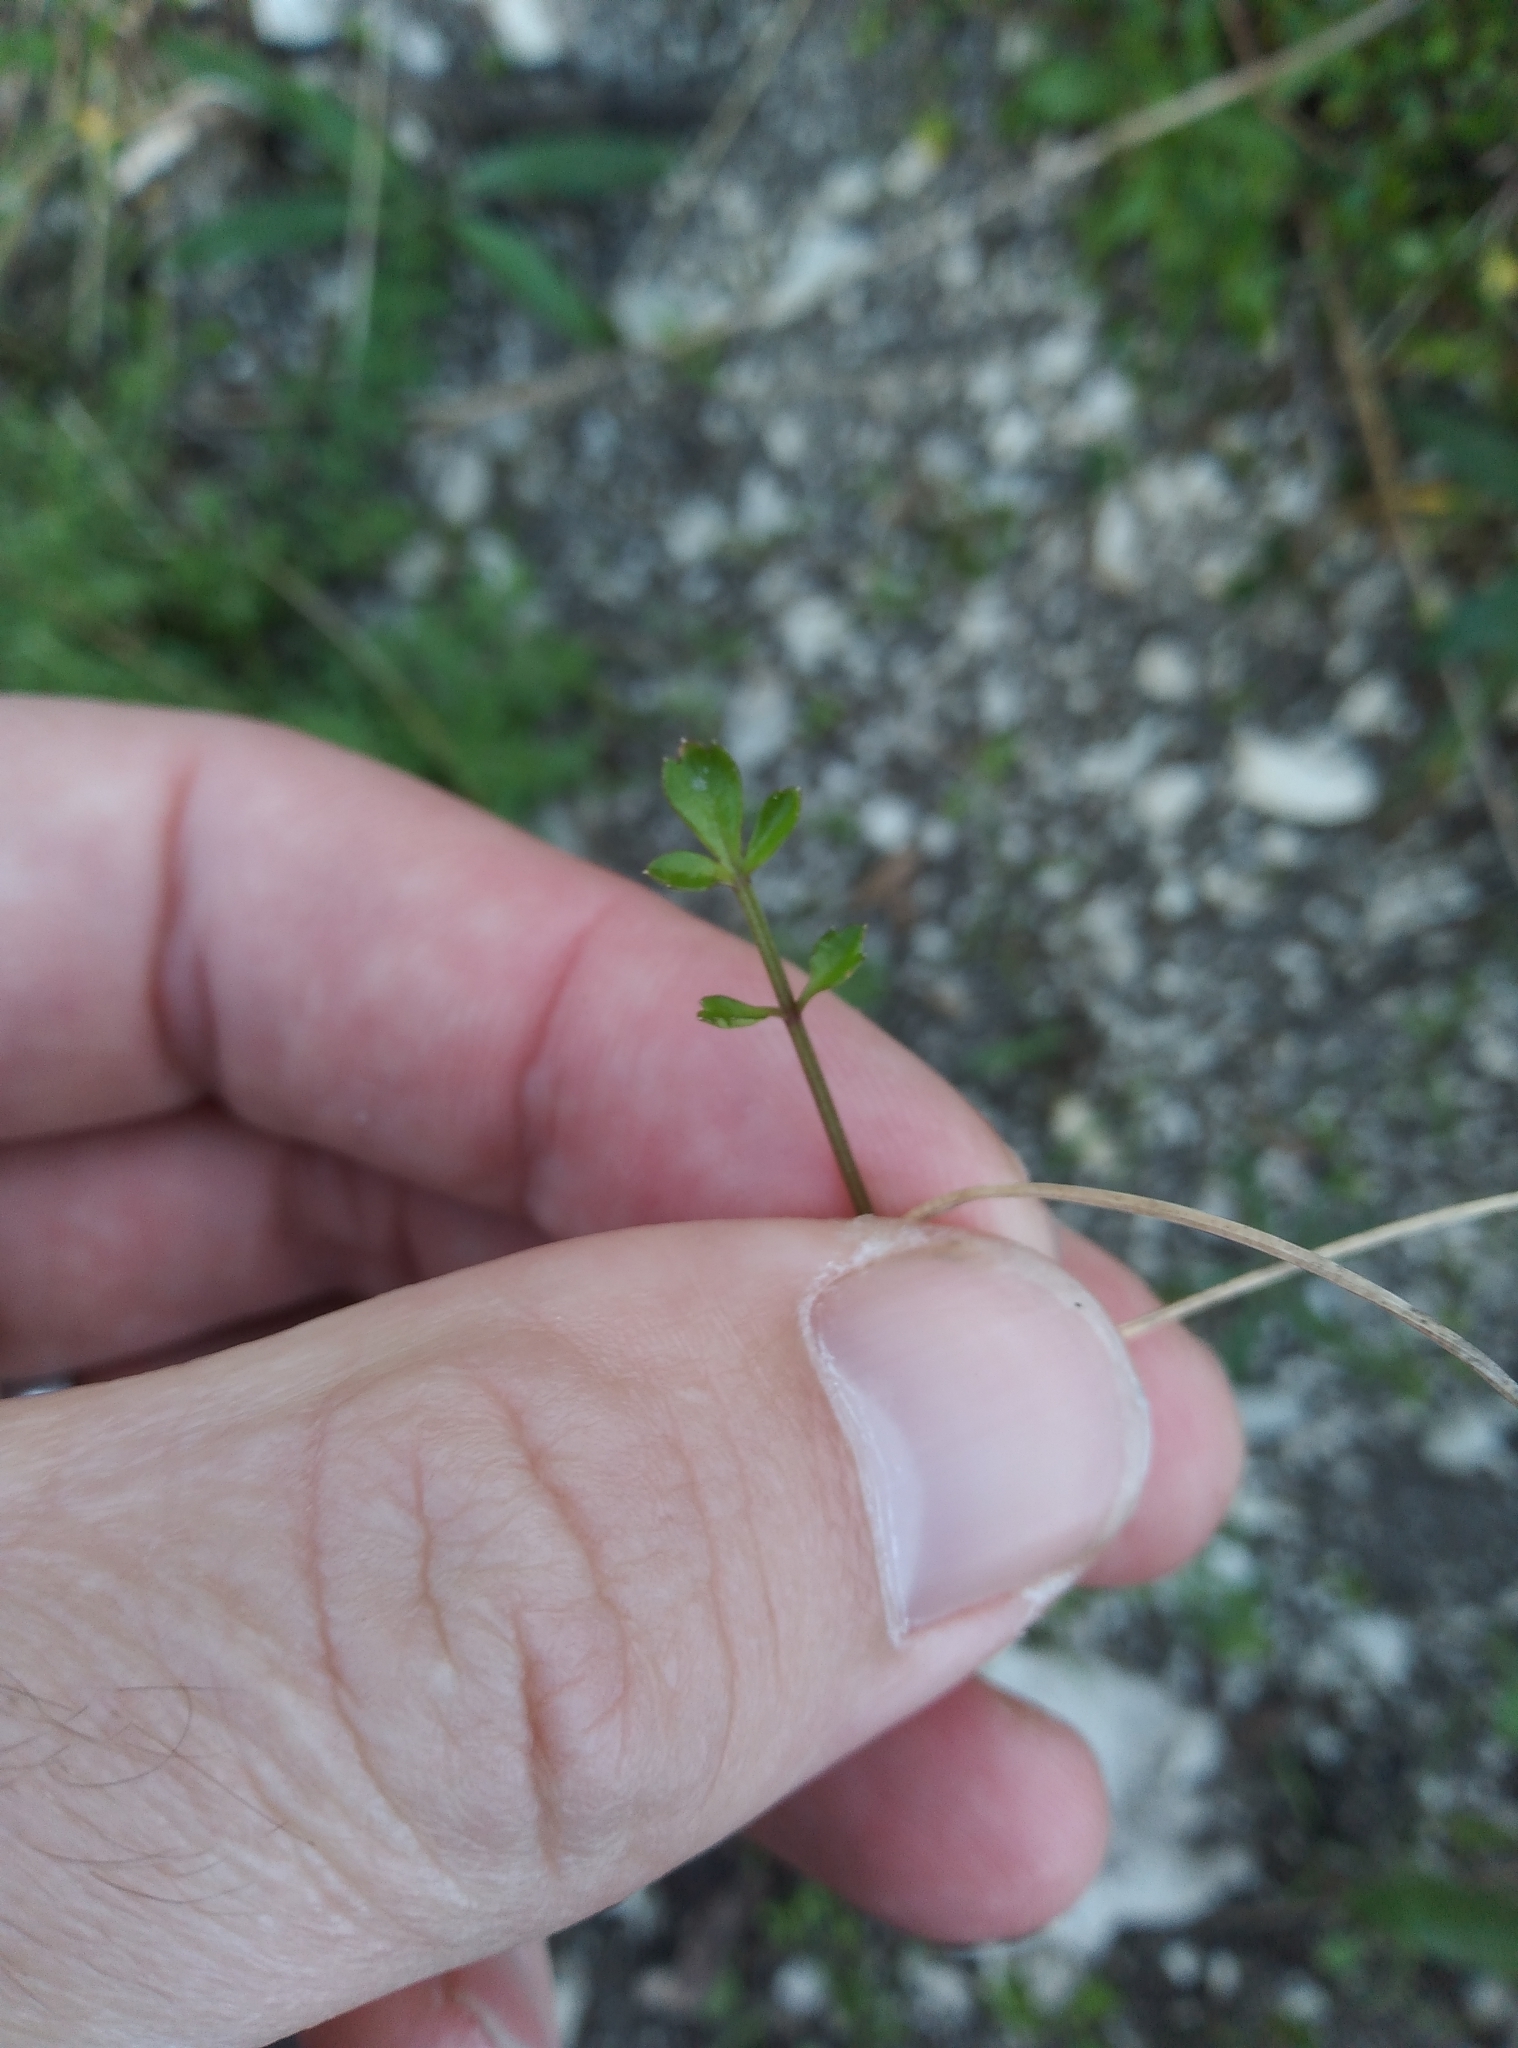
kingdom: Plantae
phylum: Tracheophyta
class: Magnoliopsida
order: Apiales
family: Apiaceae
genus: Apium
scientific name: Apium prostratum
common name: Prostrate marshwort
